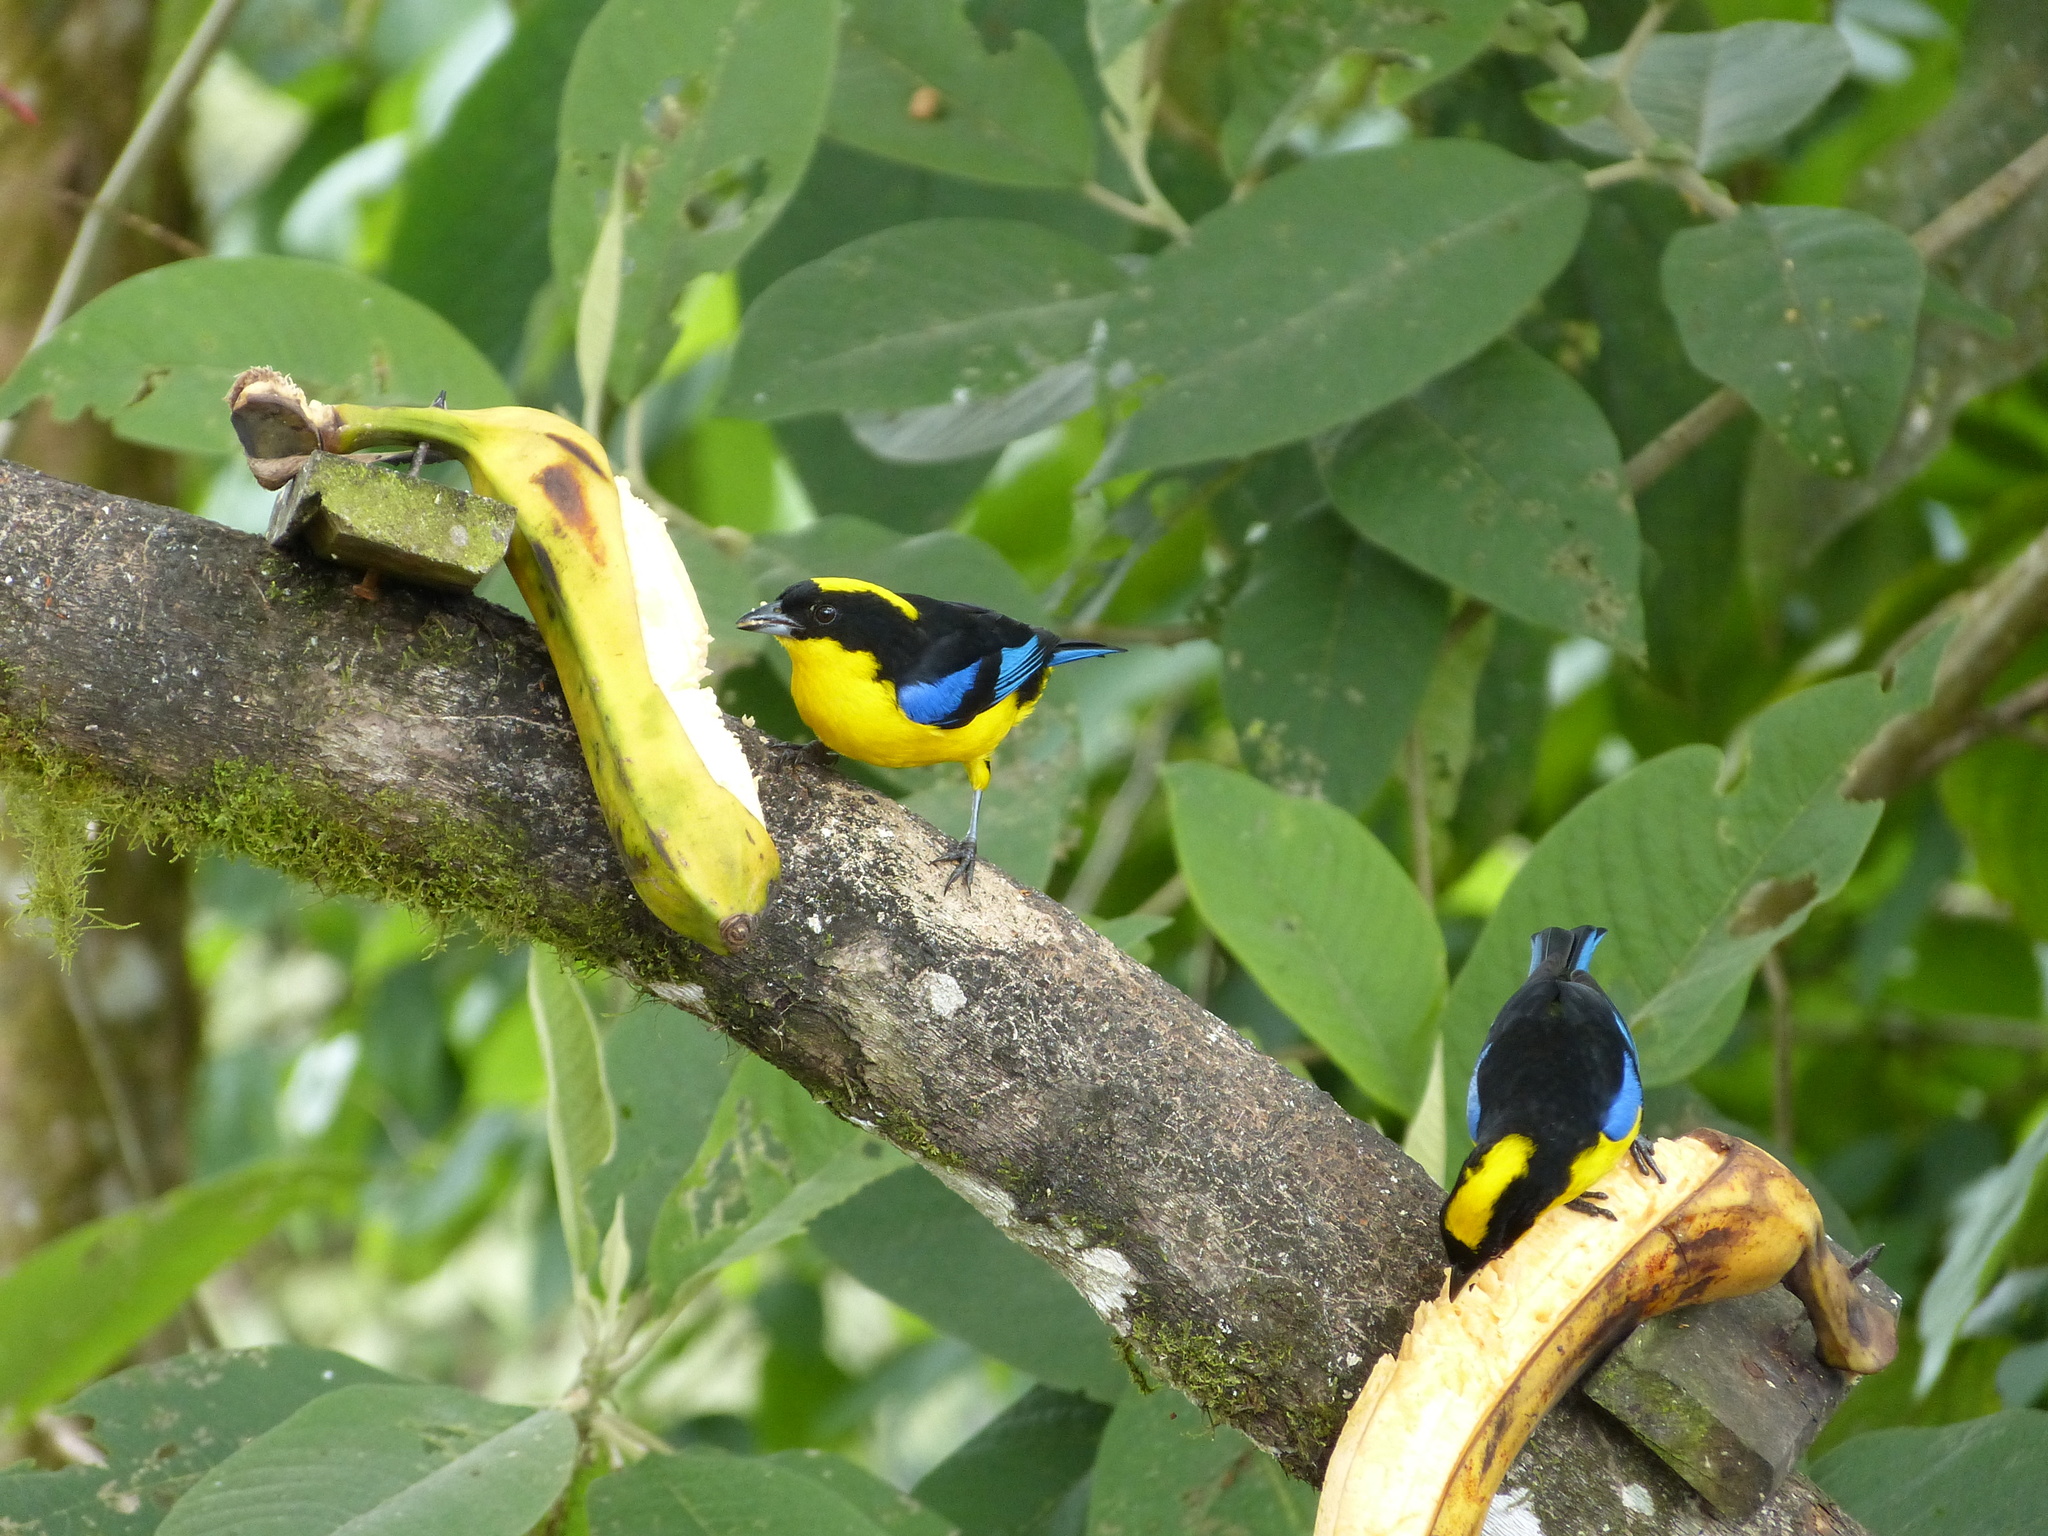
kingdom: Animalia
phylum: Chordata
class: Aves
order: Passeriformes
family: Thraupidae
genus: Anisognathus
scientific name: Anisognathus somptuosus
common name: Blue-winged mountain-tanager
